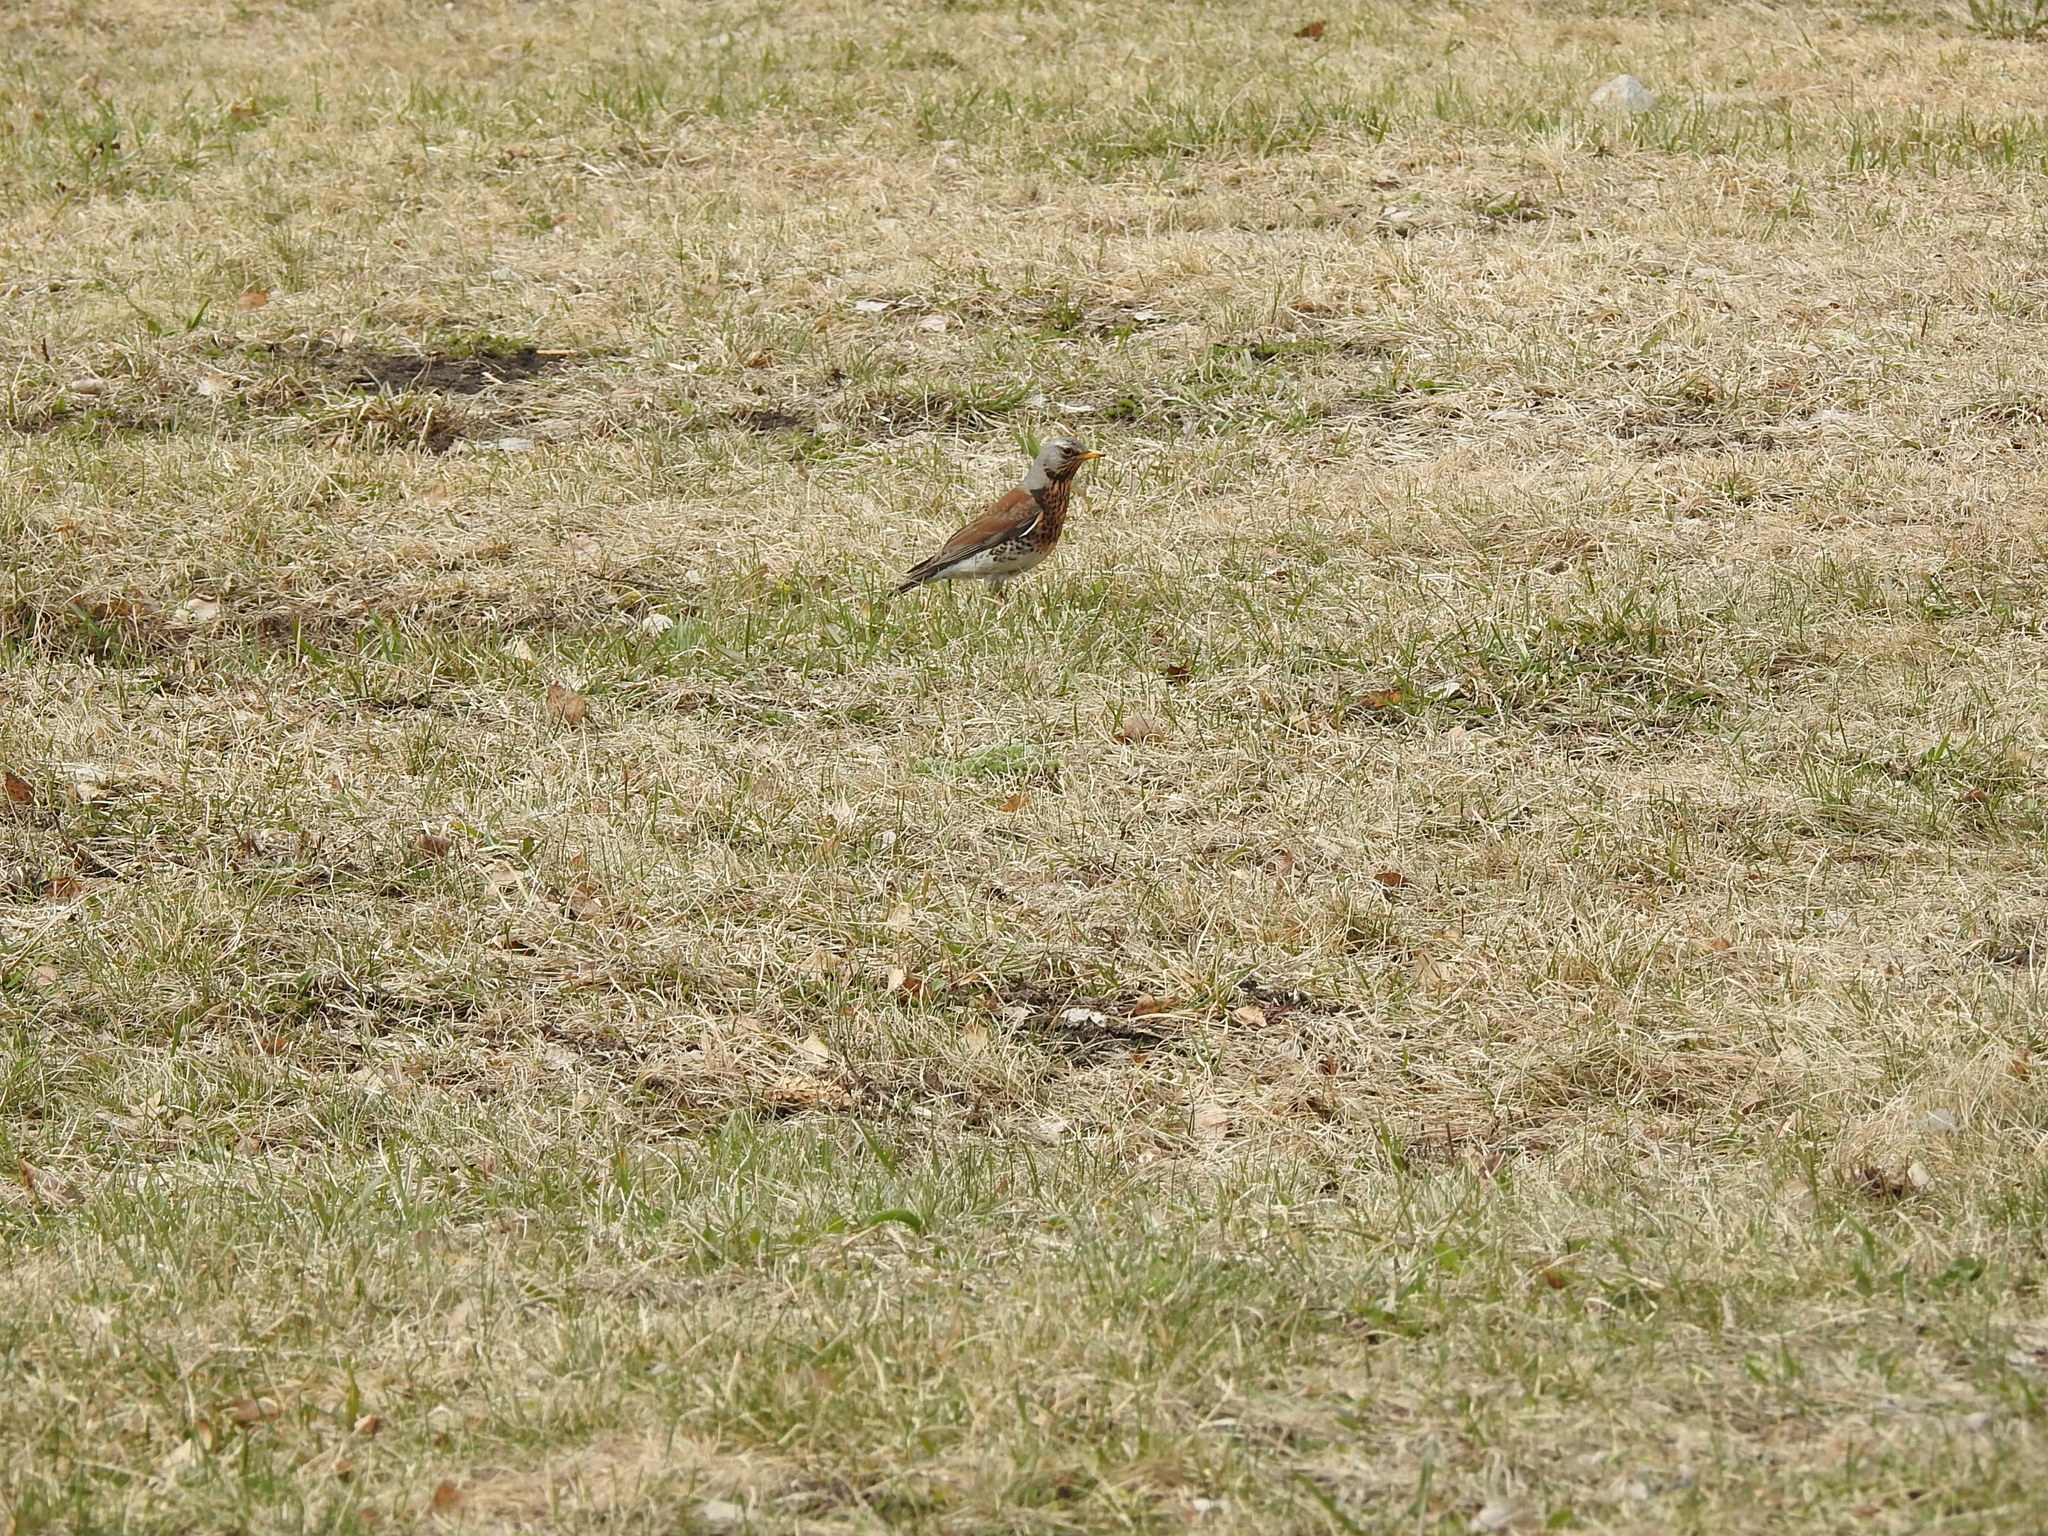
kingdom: Animalia
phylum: Chordata
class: Aves
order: Passeriformes
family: Turdidae
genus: Turdus
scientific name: Turdus pilaris
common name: Fieldfare
